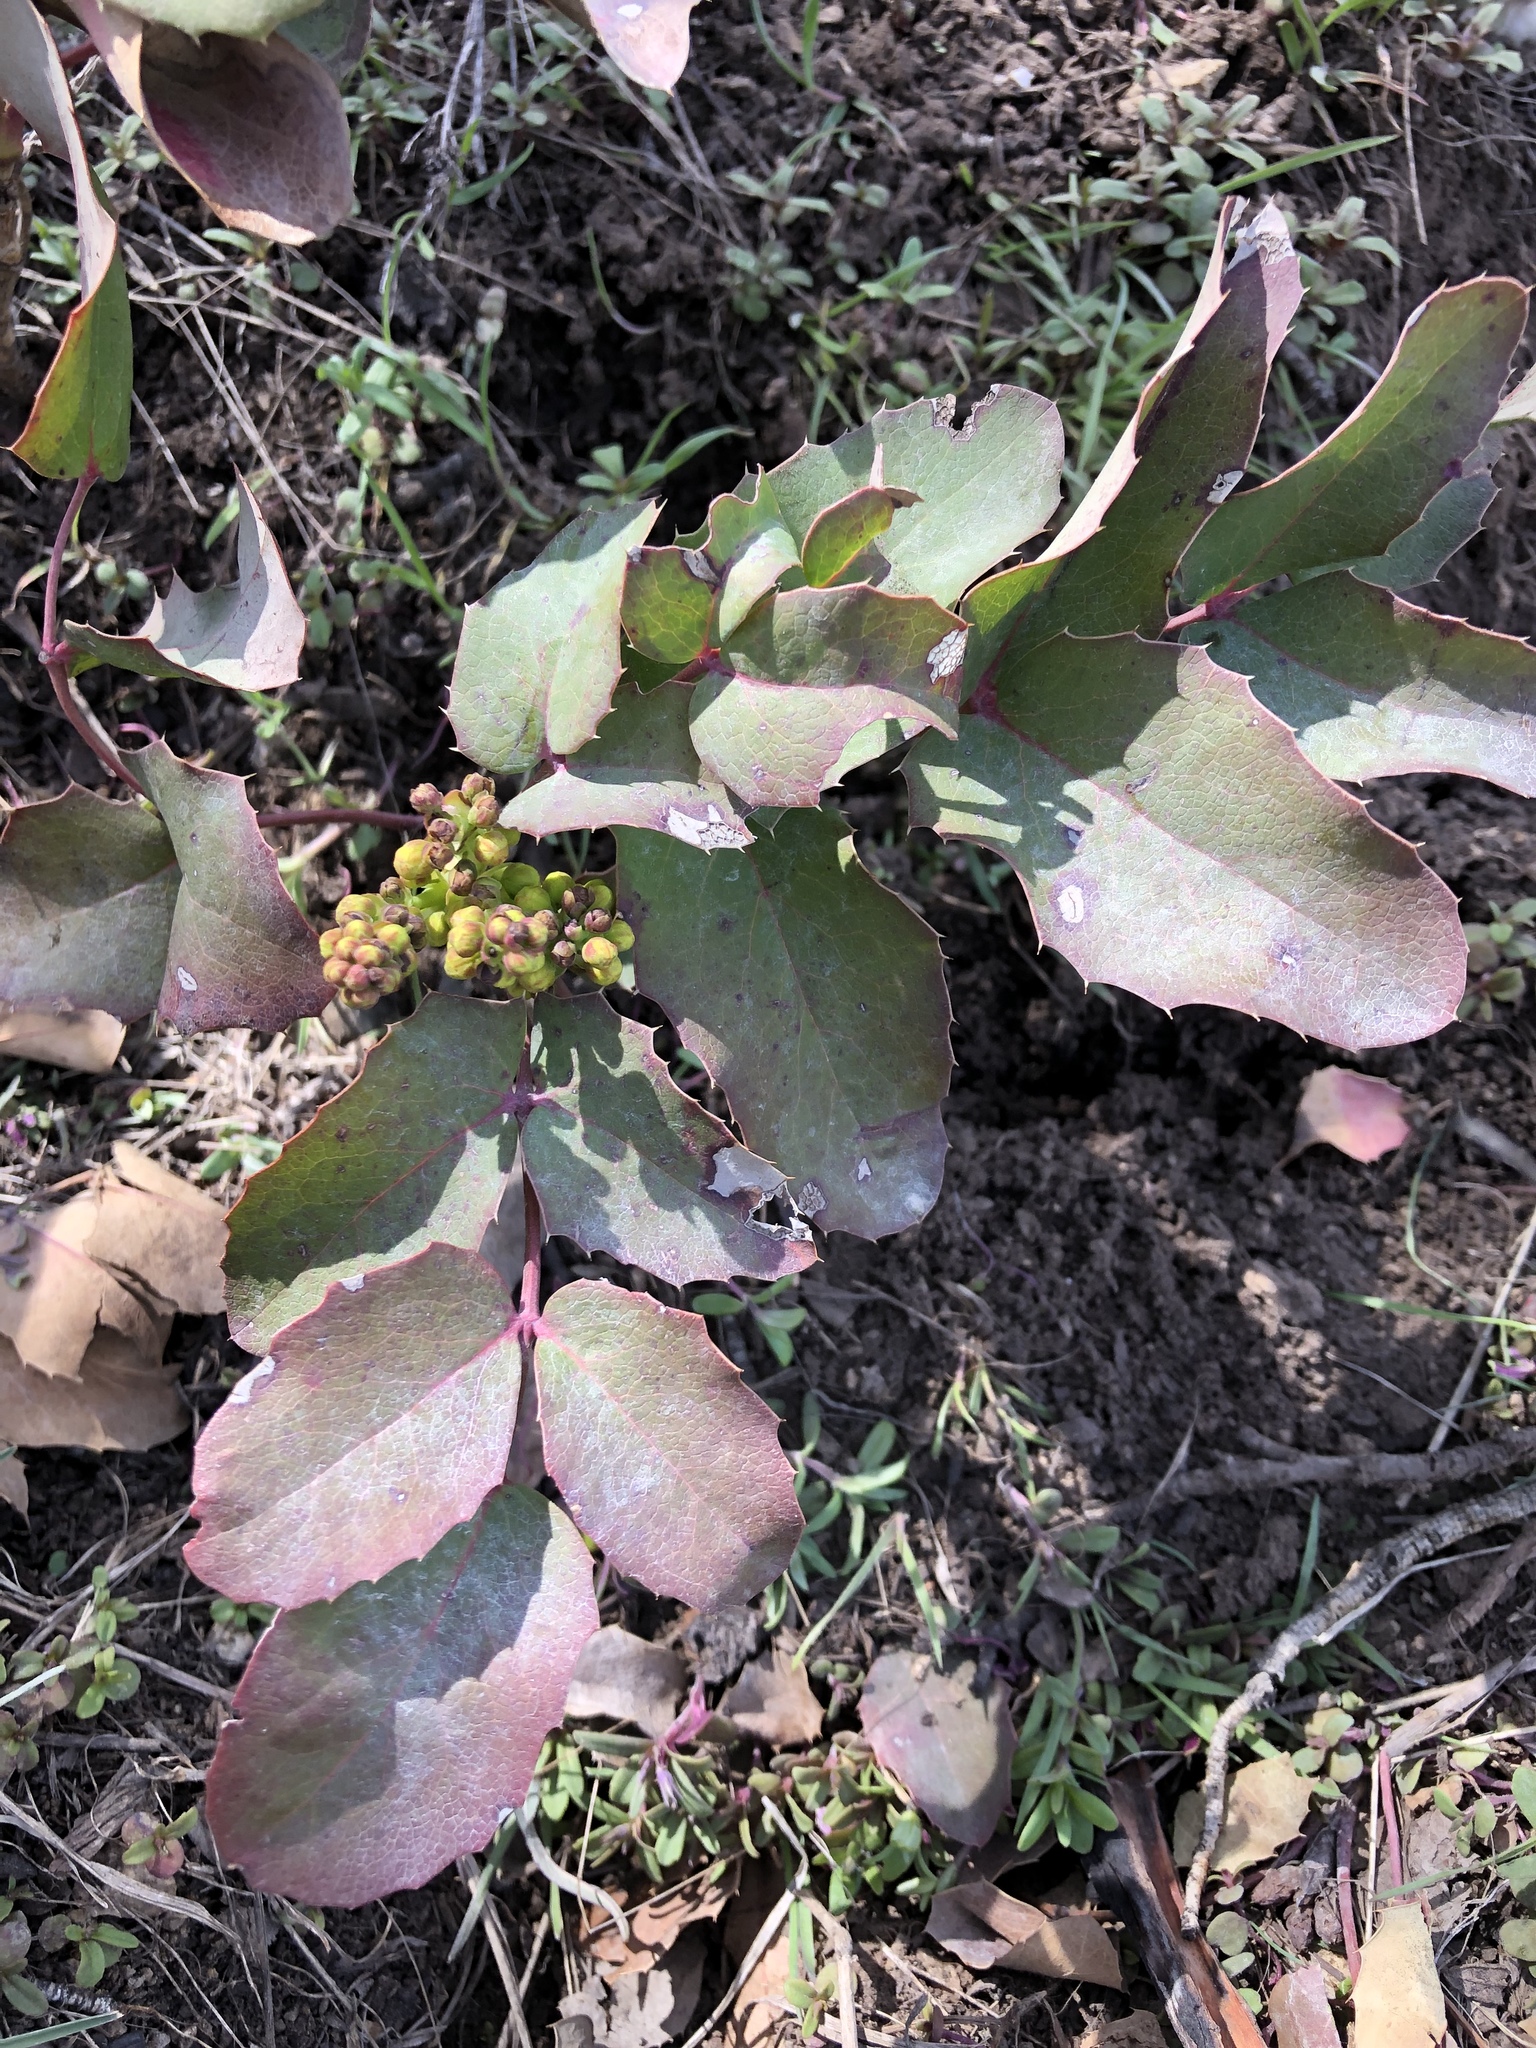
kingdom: Plantae
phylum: Tracheophyta
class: Magnoliopsida
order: Ranunculales
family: Berberidaceae
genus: Mahonia
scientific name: Mahonia repens
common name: Creeping oregon-grape
